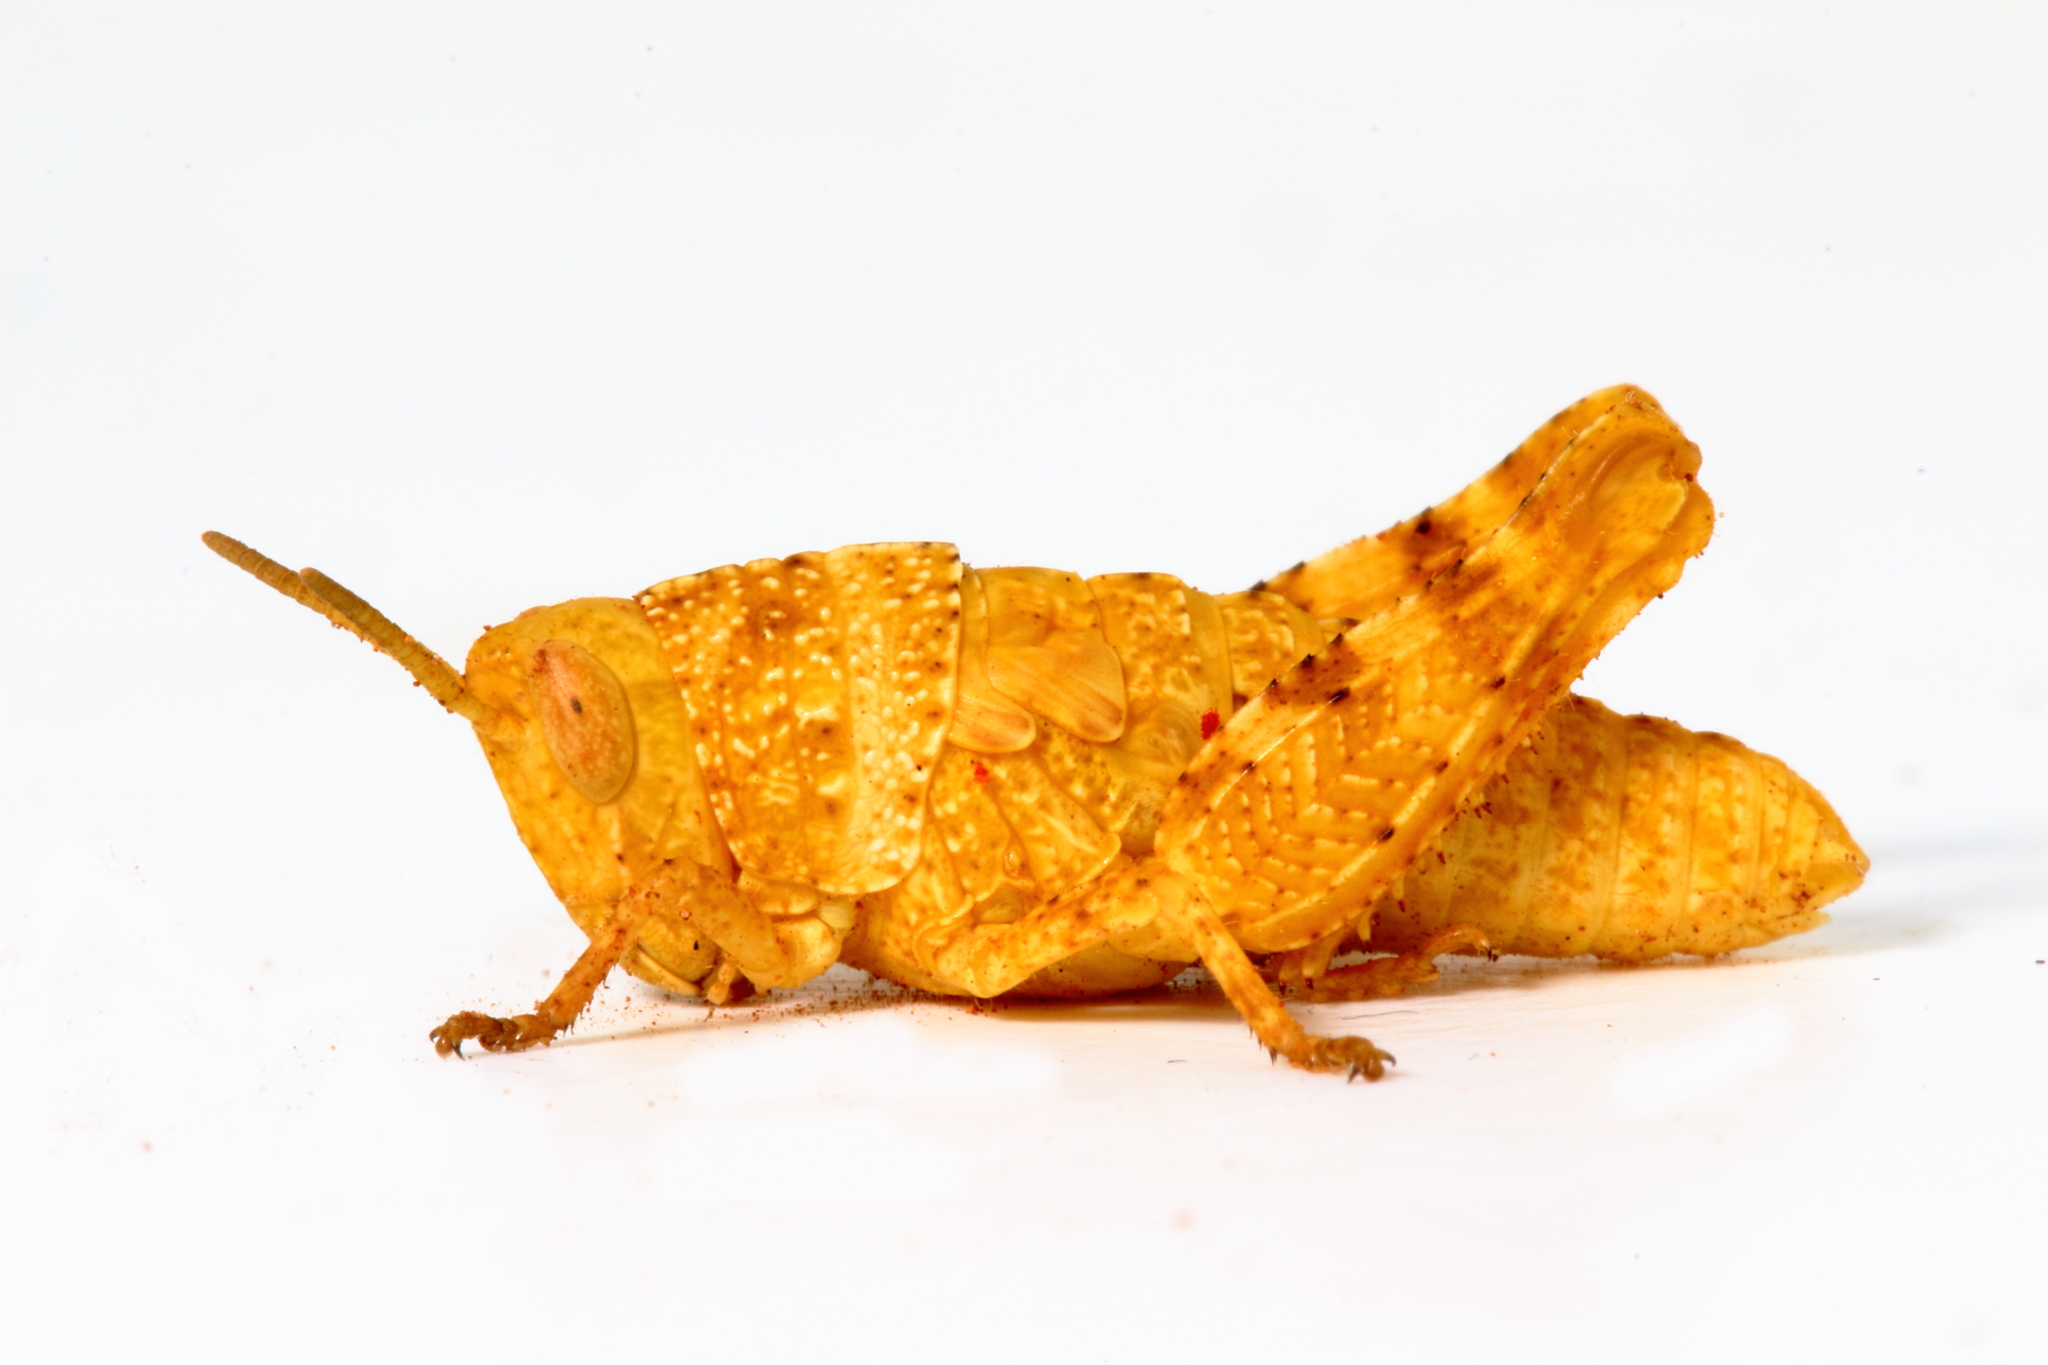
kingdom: Animalia
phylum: Arthropoda
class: Insecta
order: Orthoptera
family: Acrididae
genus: Stropis
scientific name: Stropis maculosa
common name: Leopard grasshopper
